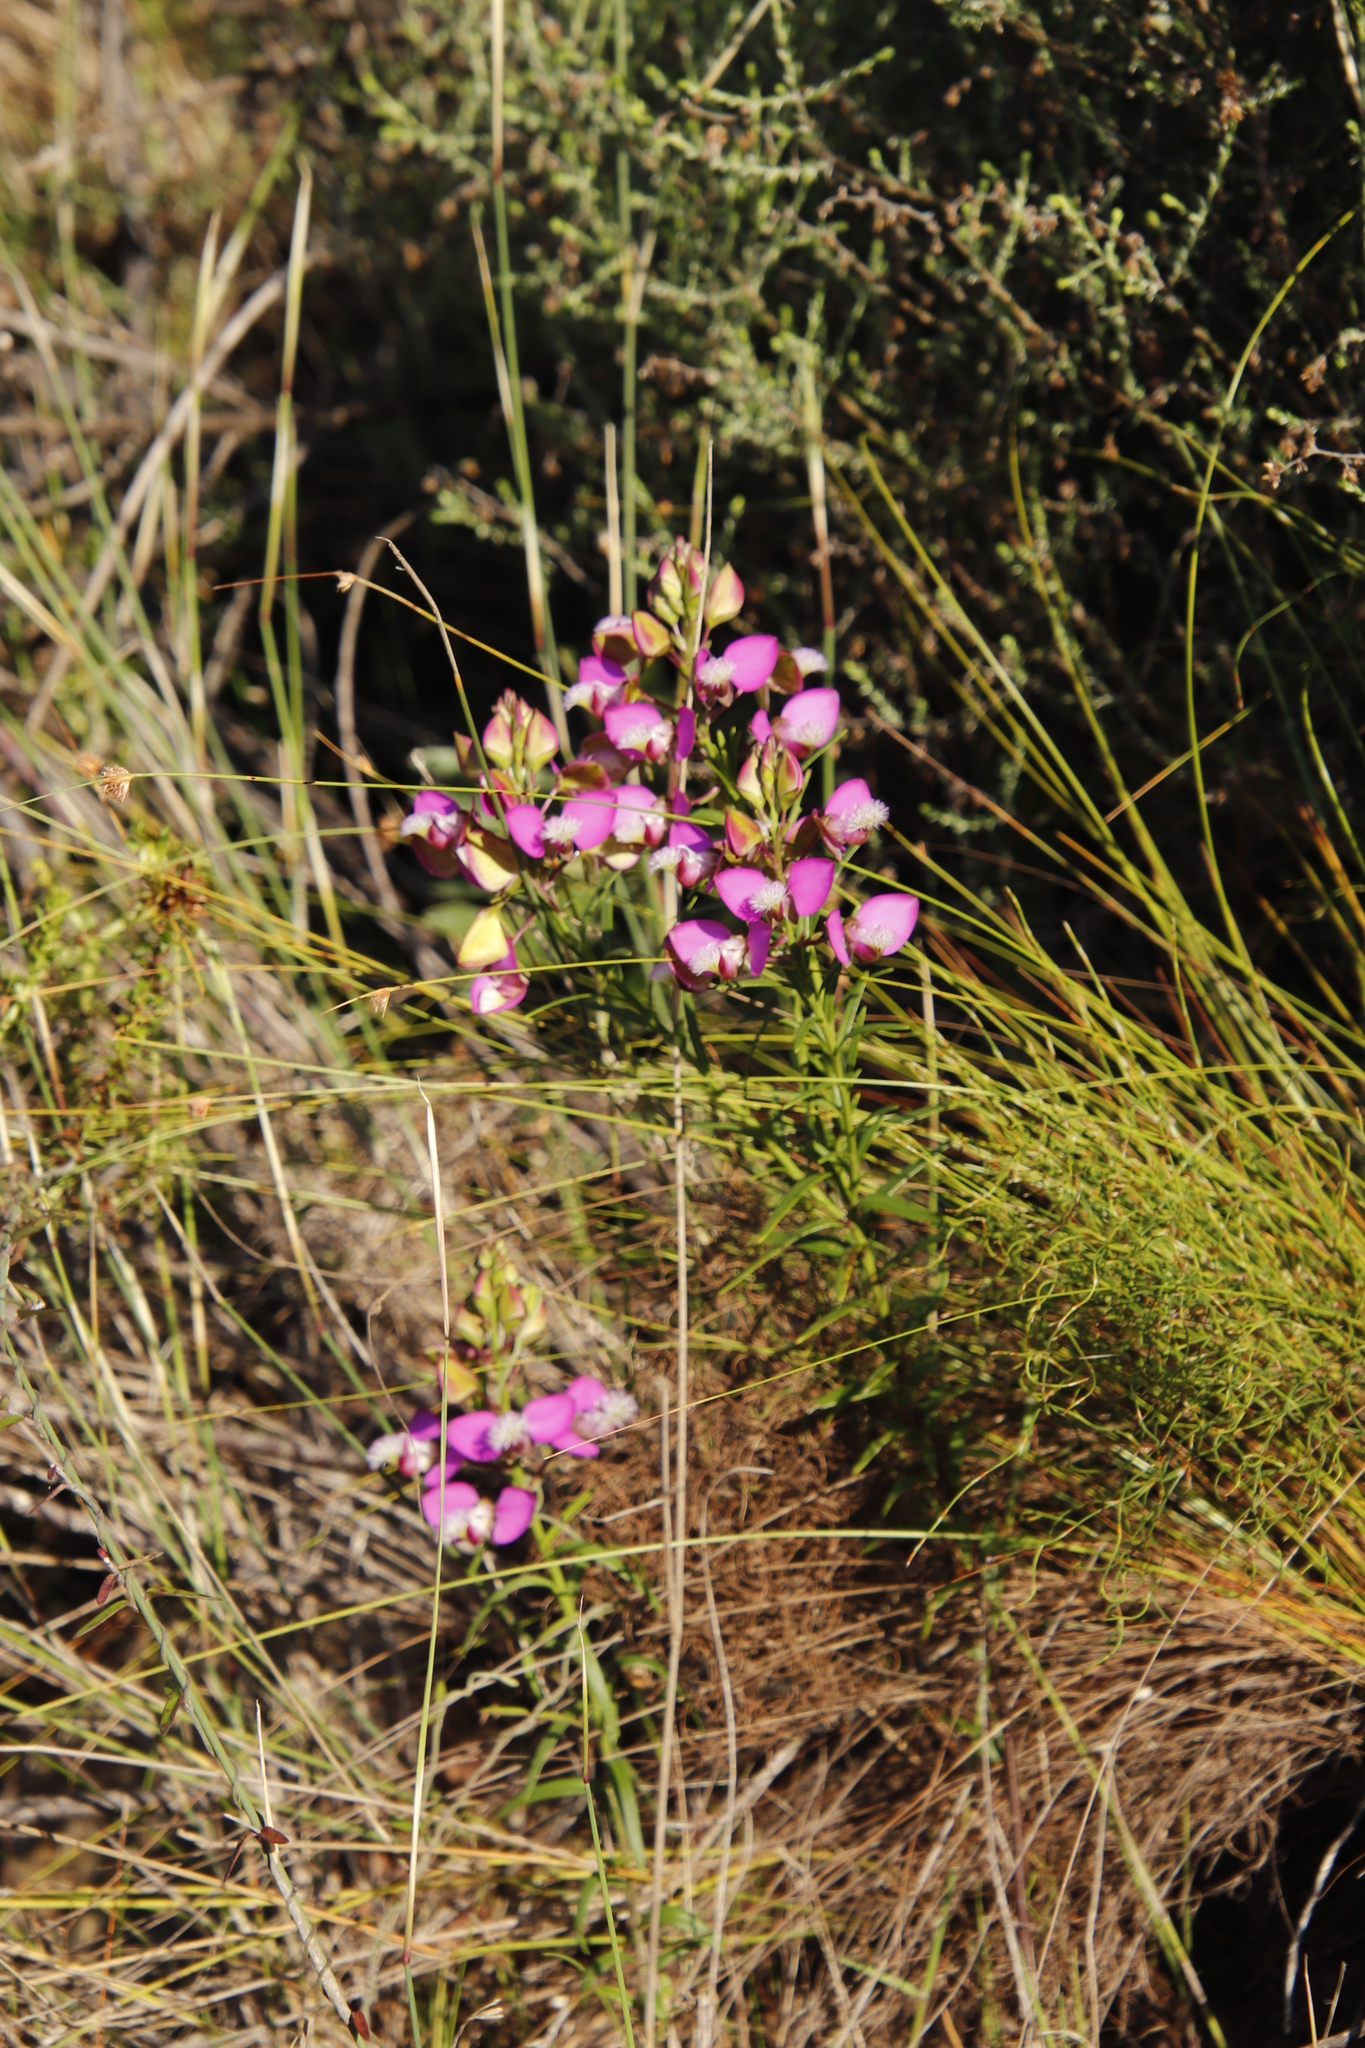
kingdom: Plantae
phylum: Tracheophyta
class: Magnoliopsida
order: Fabales
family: Polygalaceae
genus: Polygala
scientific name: Polygala bracteolata
